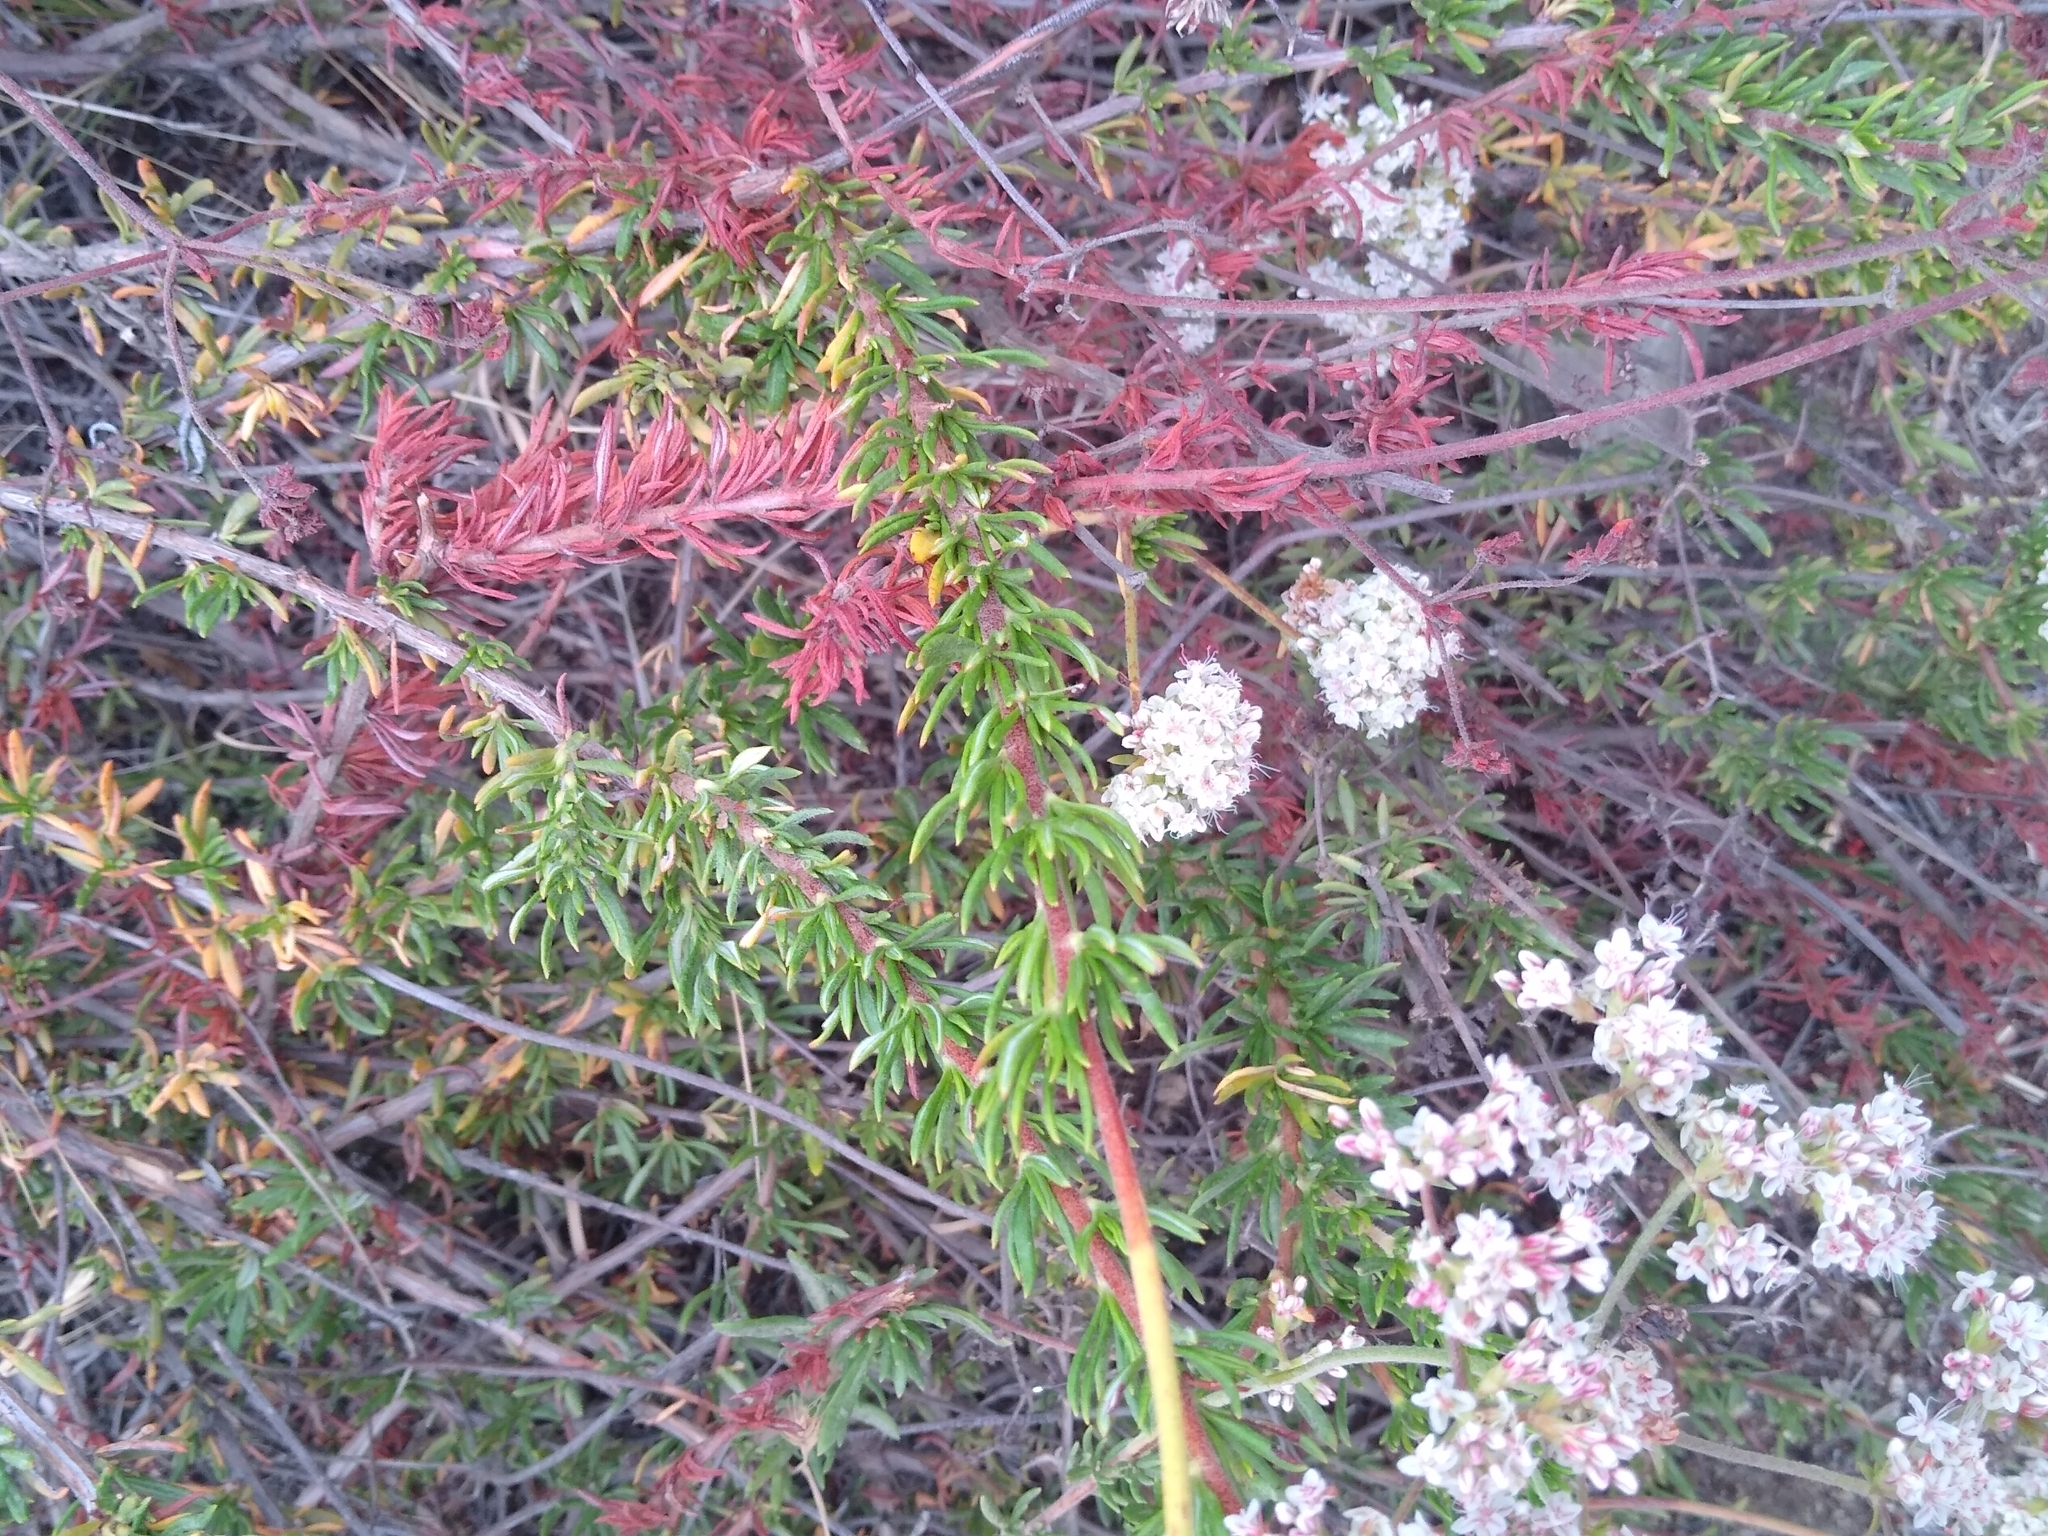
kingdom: Plantae
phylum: Tracheophyta
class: Magnoliopsida
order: Caryophyllales
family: Polygonaceae
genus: Eriogonum
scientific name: Eriogonum fasciculatum
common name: California wild buckwheat
